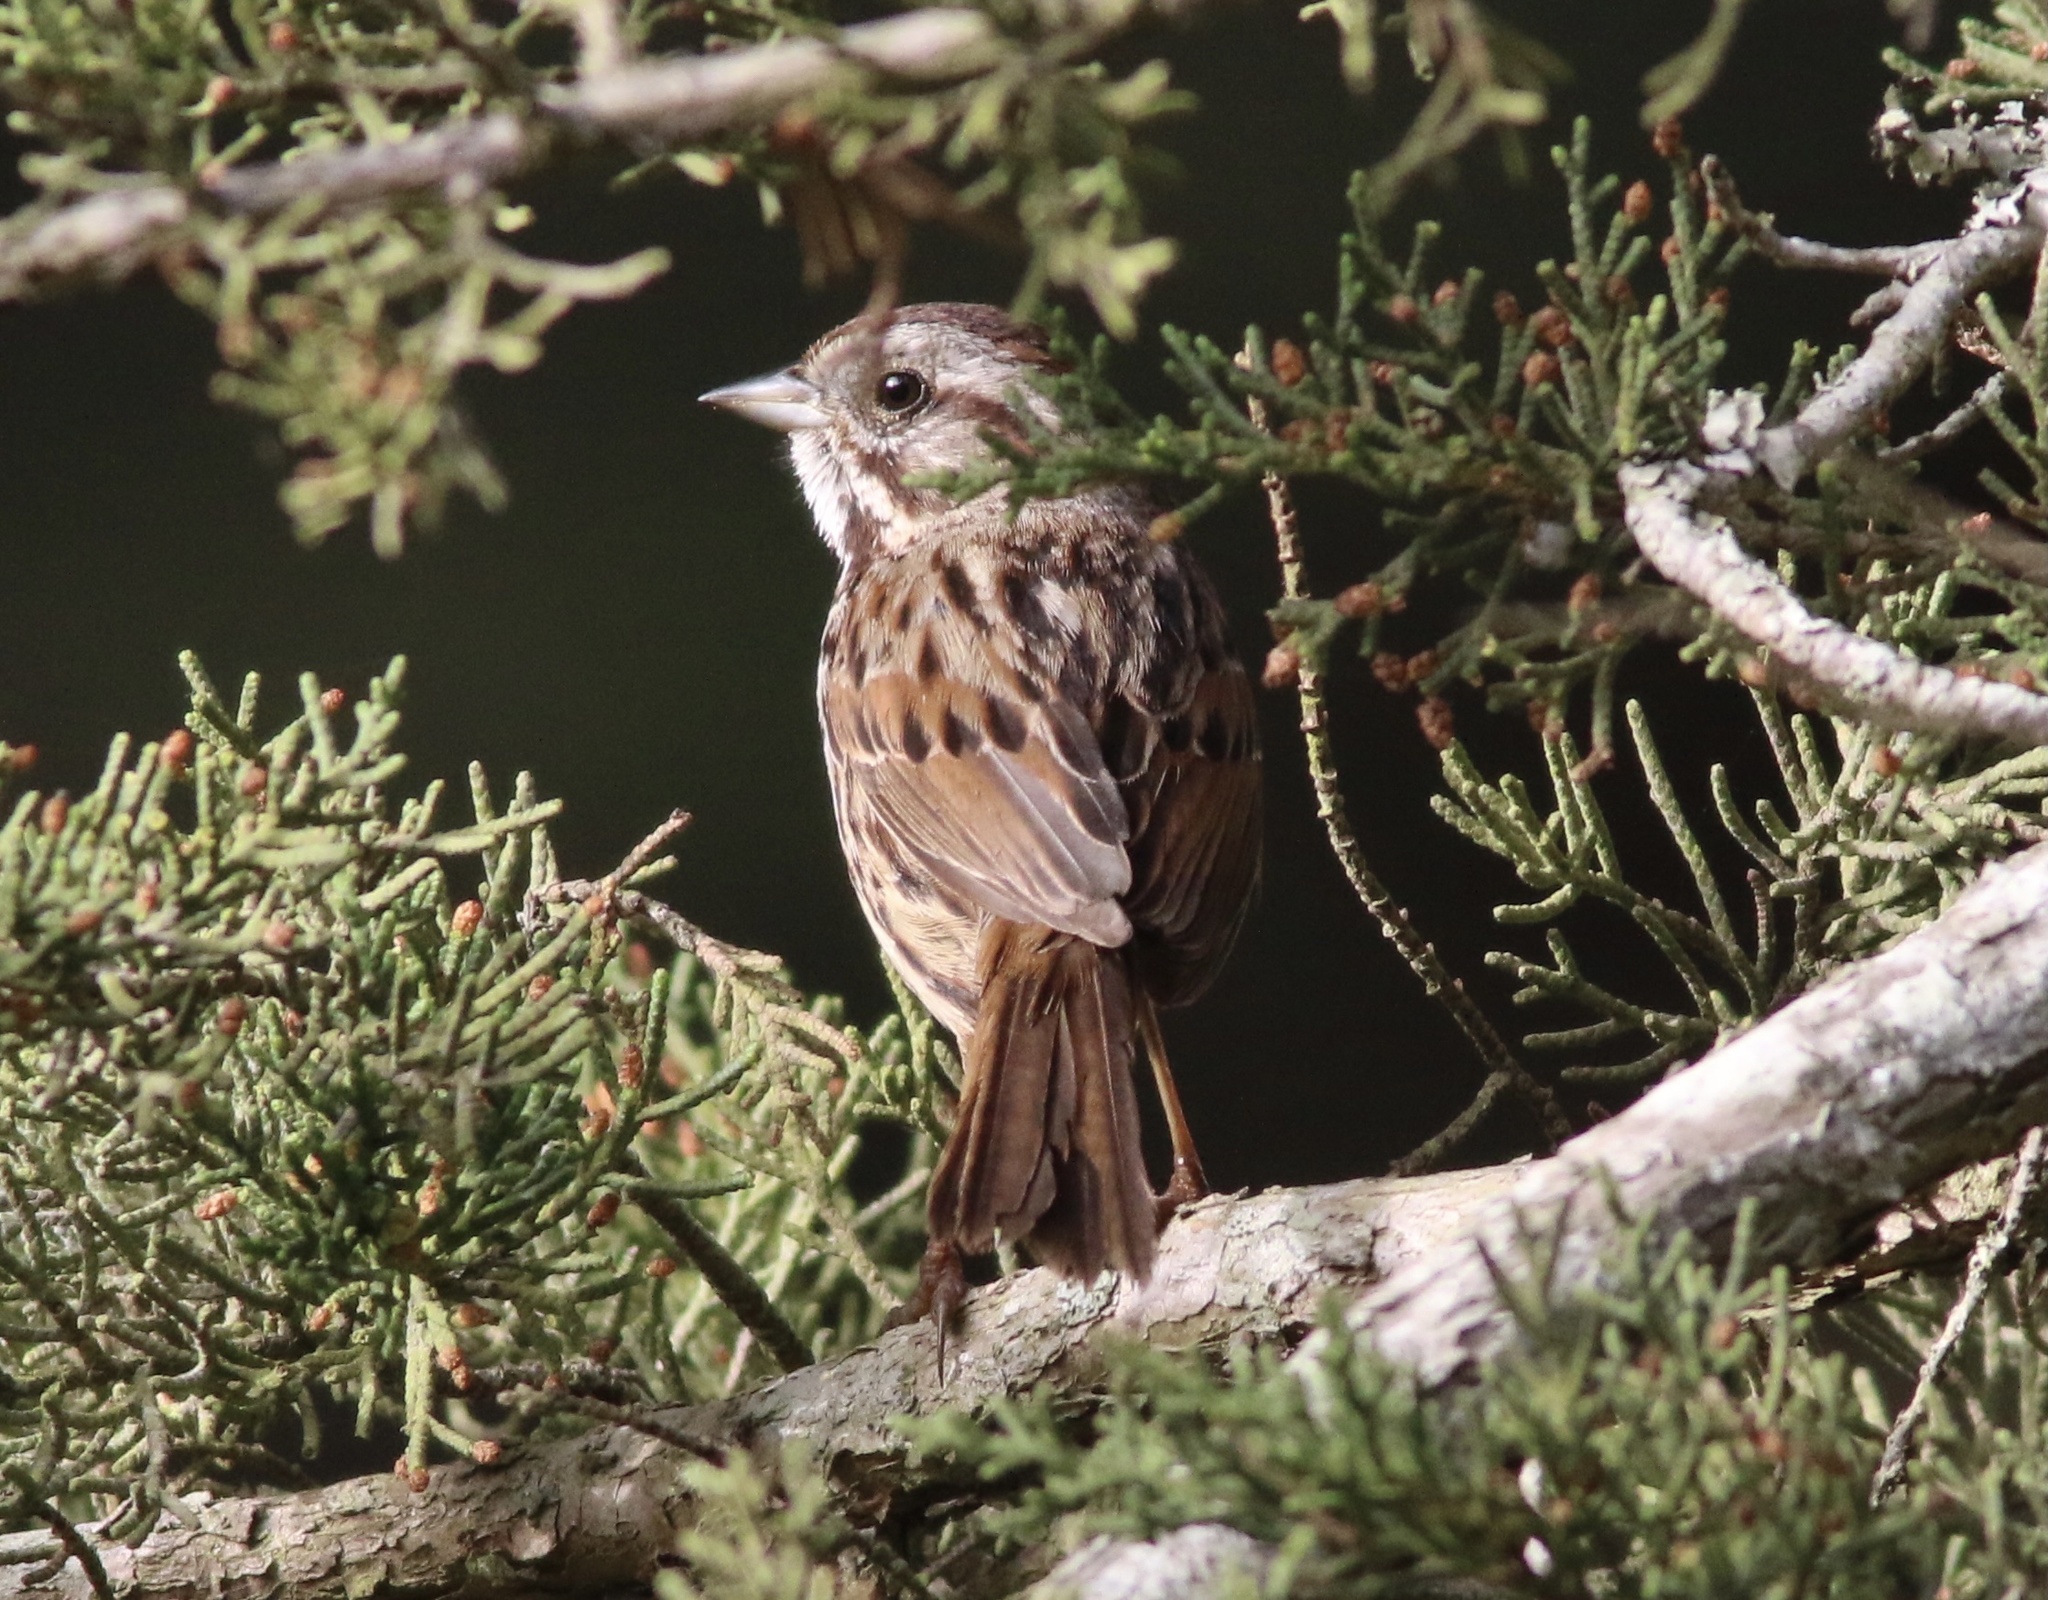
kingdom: Animalia
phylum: Chordata
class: Aves
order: Passeriformes
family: Passerellidae
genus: Melospiza
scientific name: Melospiza melodia
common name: Song sparrow
